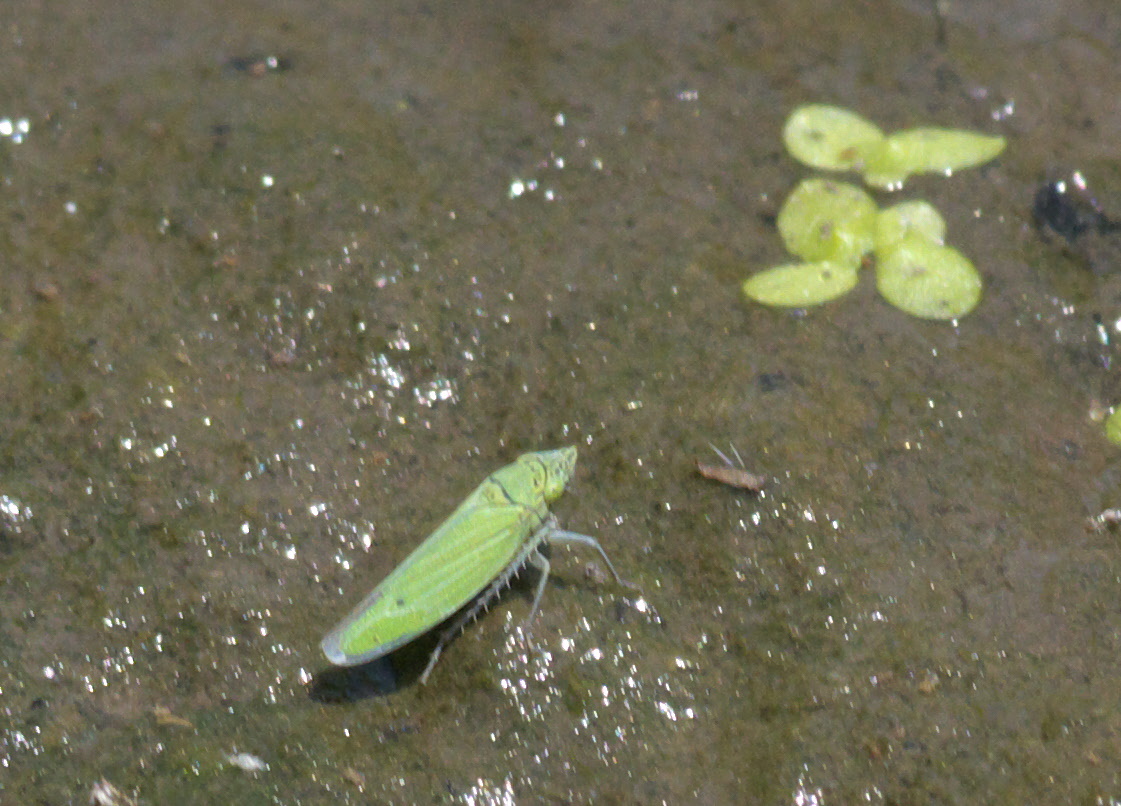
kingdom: Animalia
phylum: Arthropoda
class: Insecta
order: Hemiptera
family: Cicadellidae
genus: Draeculacephala
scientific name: Draeculacephala inscripta
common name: Leafhopper
